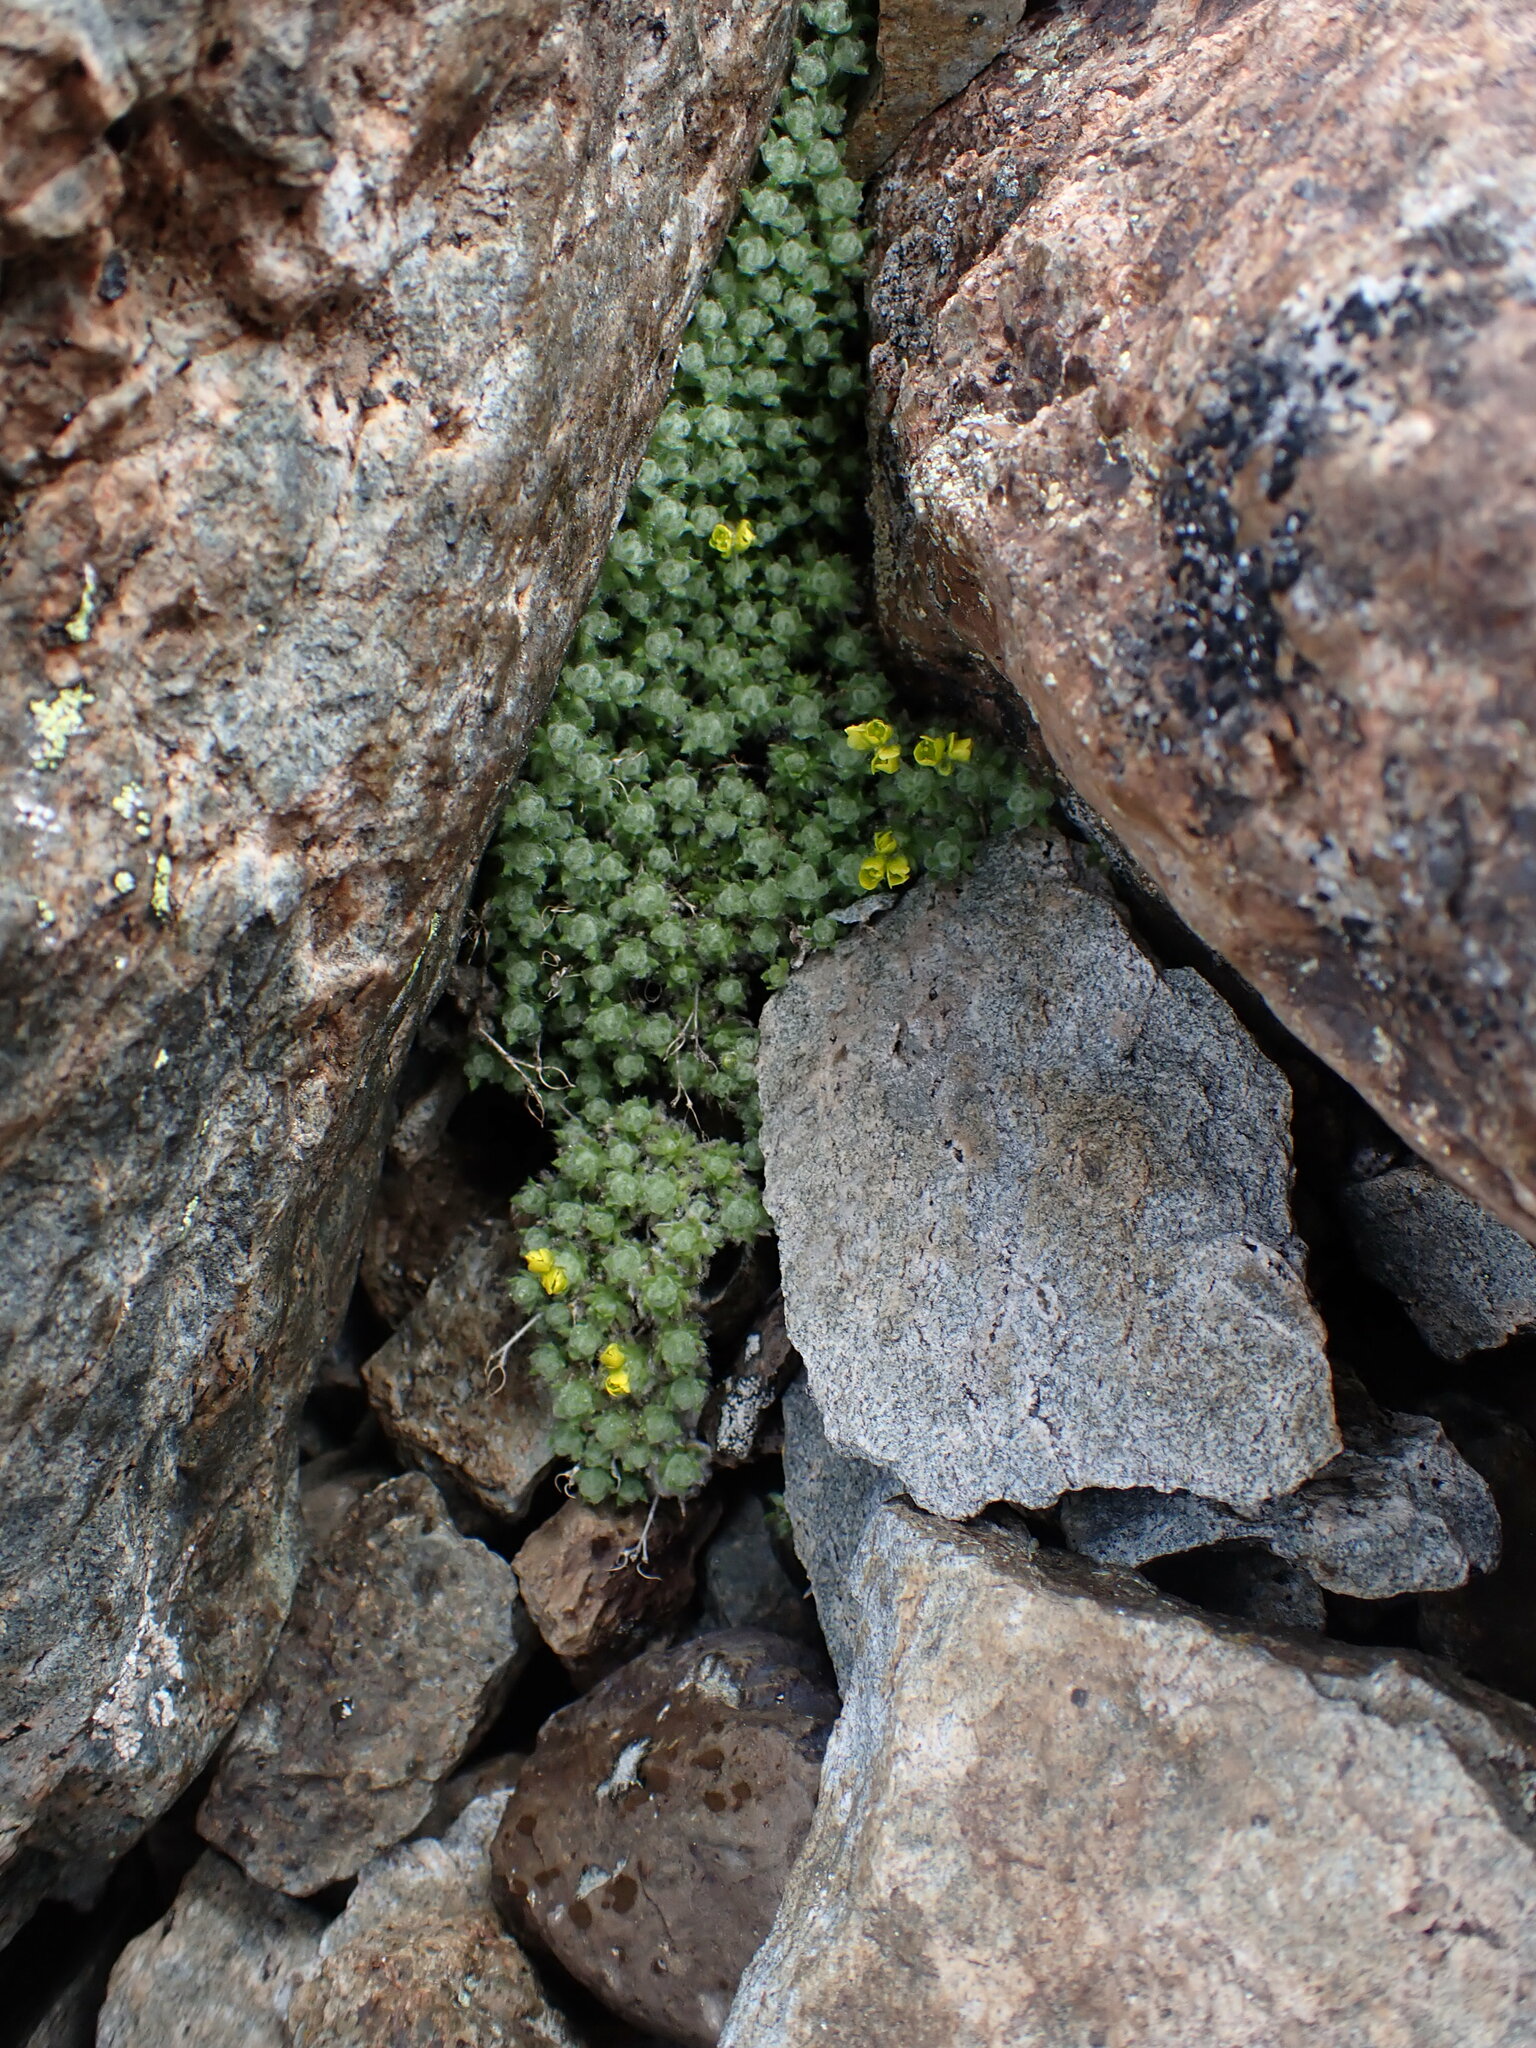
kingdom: Plantae
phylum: Tracheophyta
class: Magnoliopsida
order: Brassicales
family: Brassicaceae
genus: Draba
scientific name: Draba oligosperma
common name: Few-seed draba
